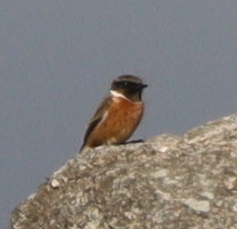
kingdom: Animalia
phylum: Chordata
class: Aves
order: Passeriformes
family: Muscicapidae
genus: Saxicola
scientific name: Saxicola rubicola
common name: European stonechat
